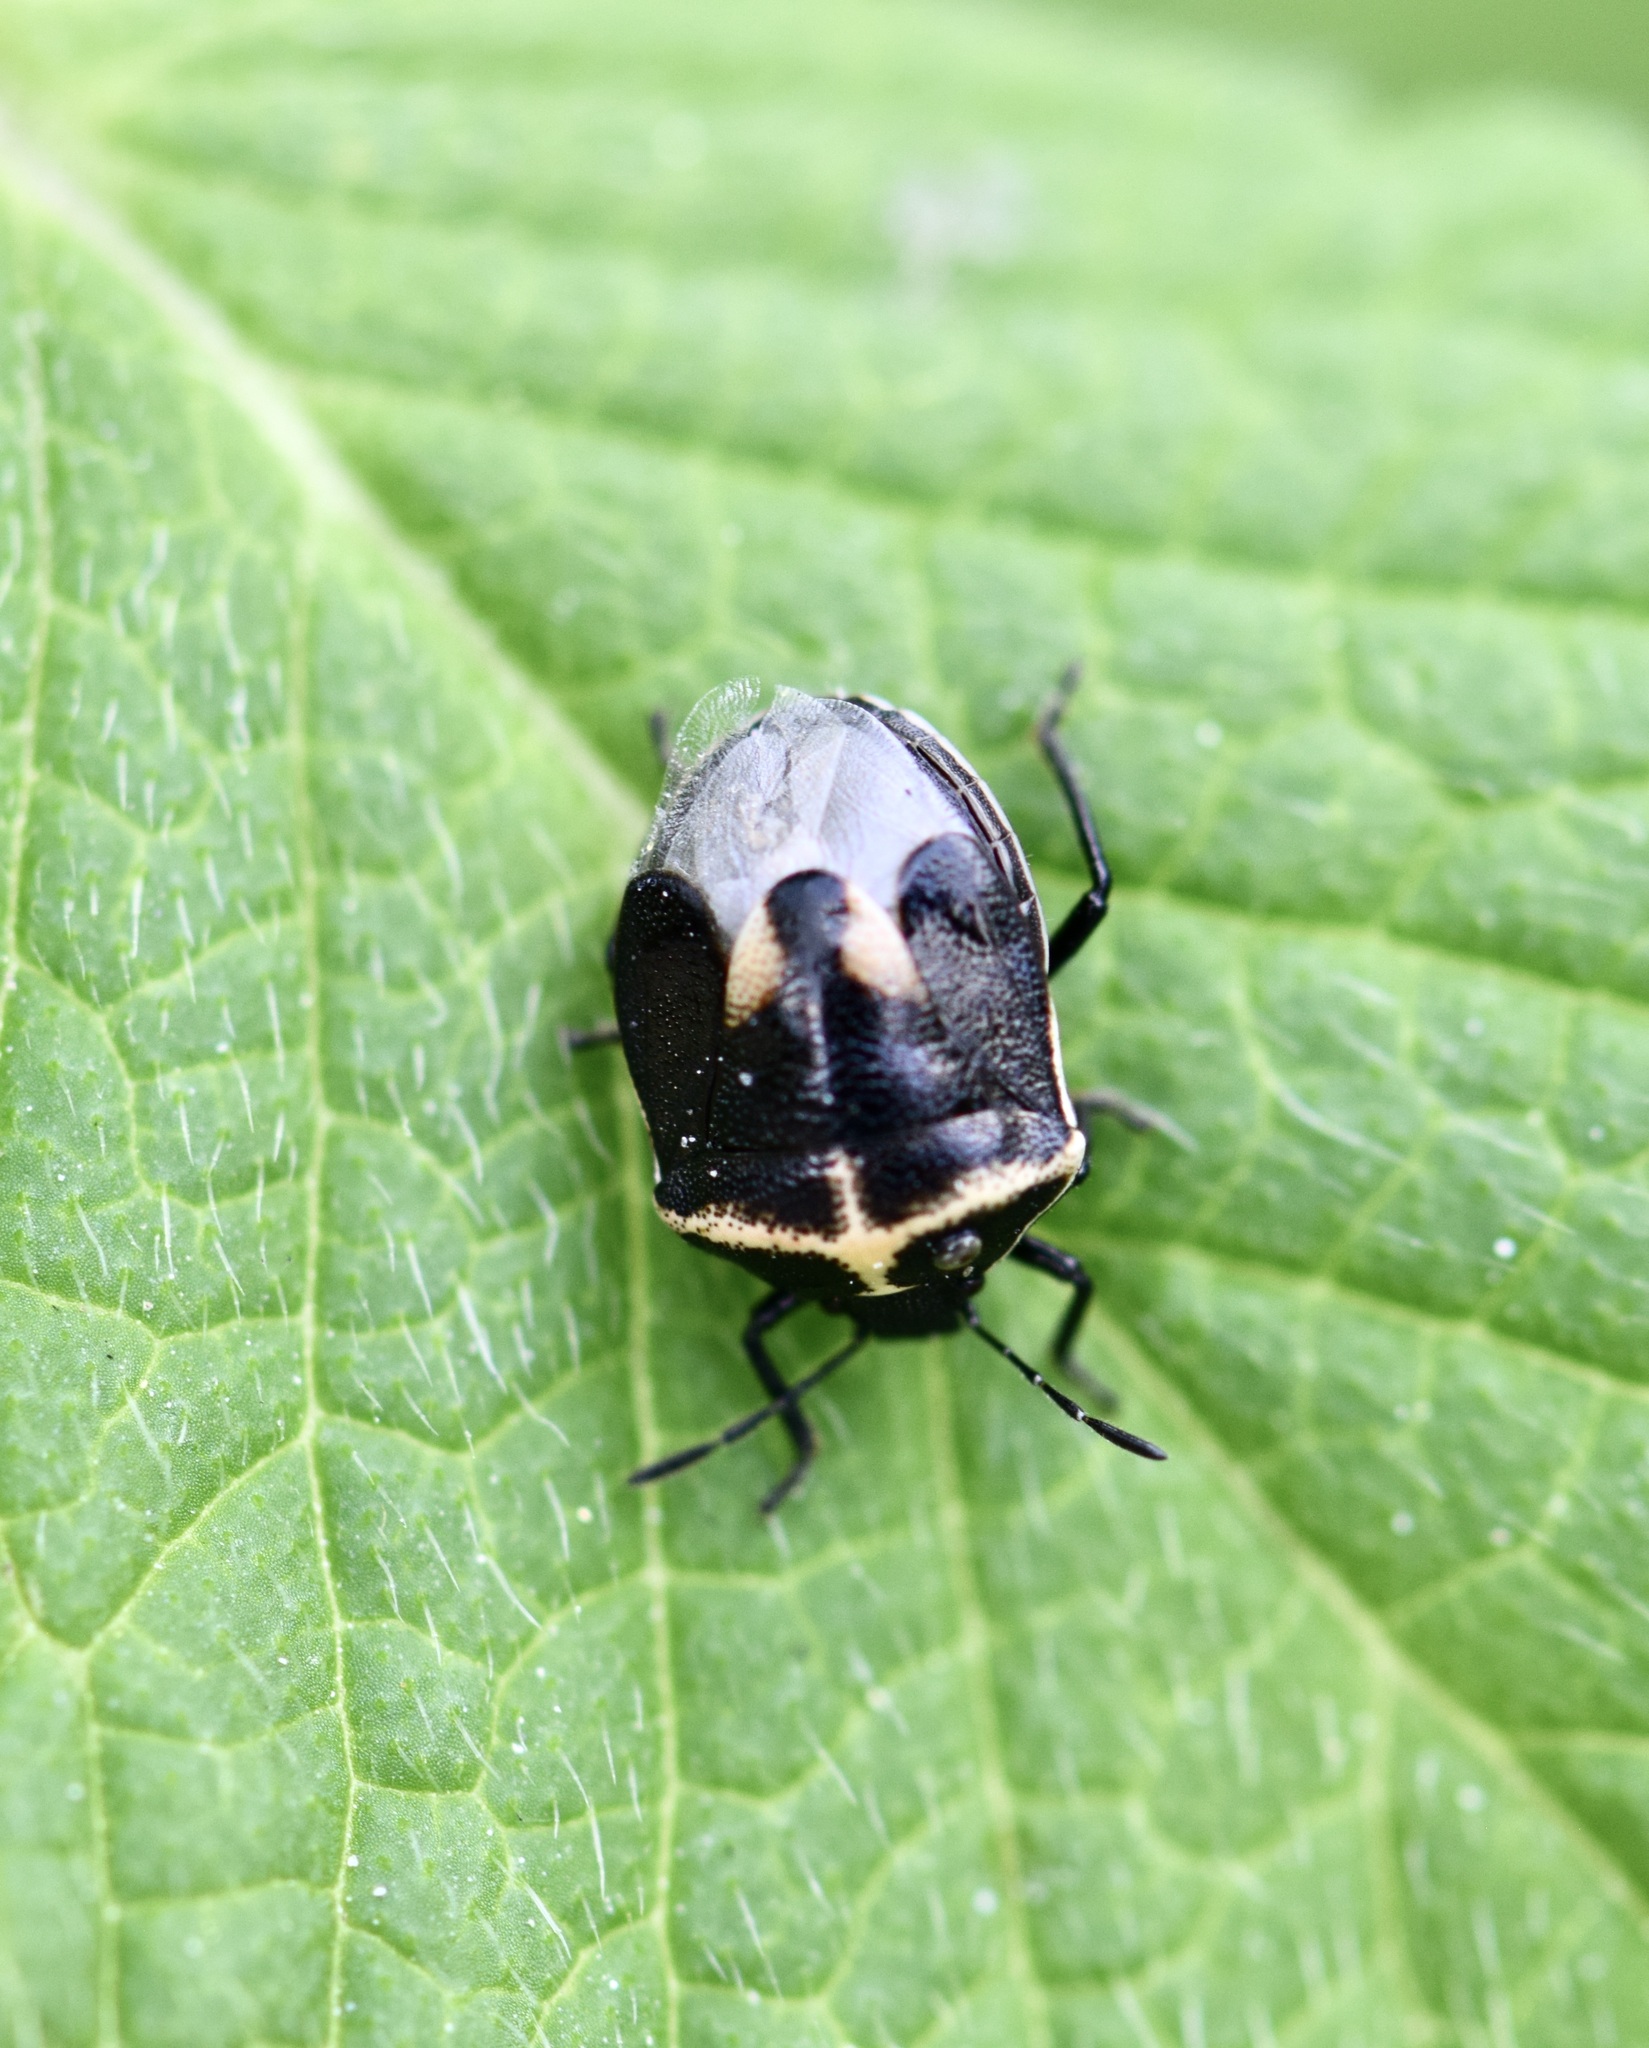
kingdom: Animalia
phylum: Arthropoda
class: Insecta
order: Hemiptera
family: Pentatomidae
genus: Cosmopepla
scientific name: Cosmopepla lintneriana
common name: Twice-stabbed stink bug
